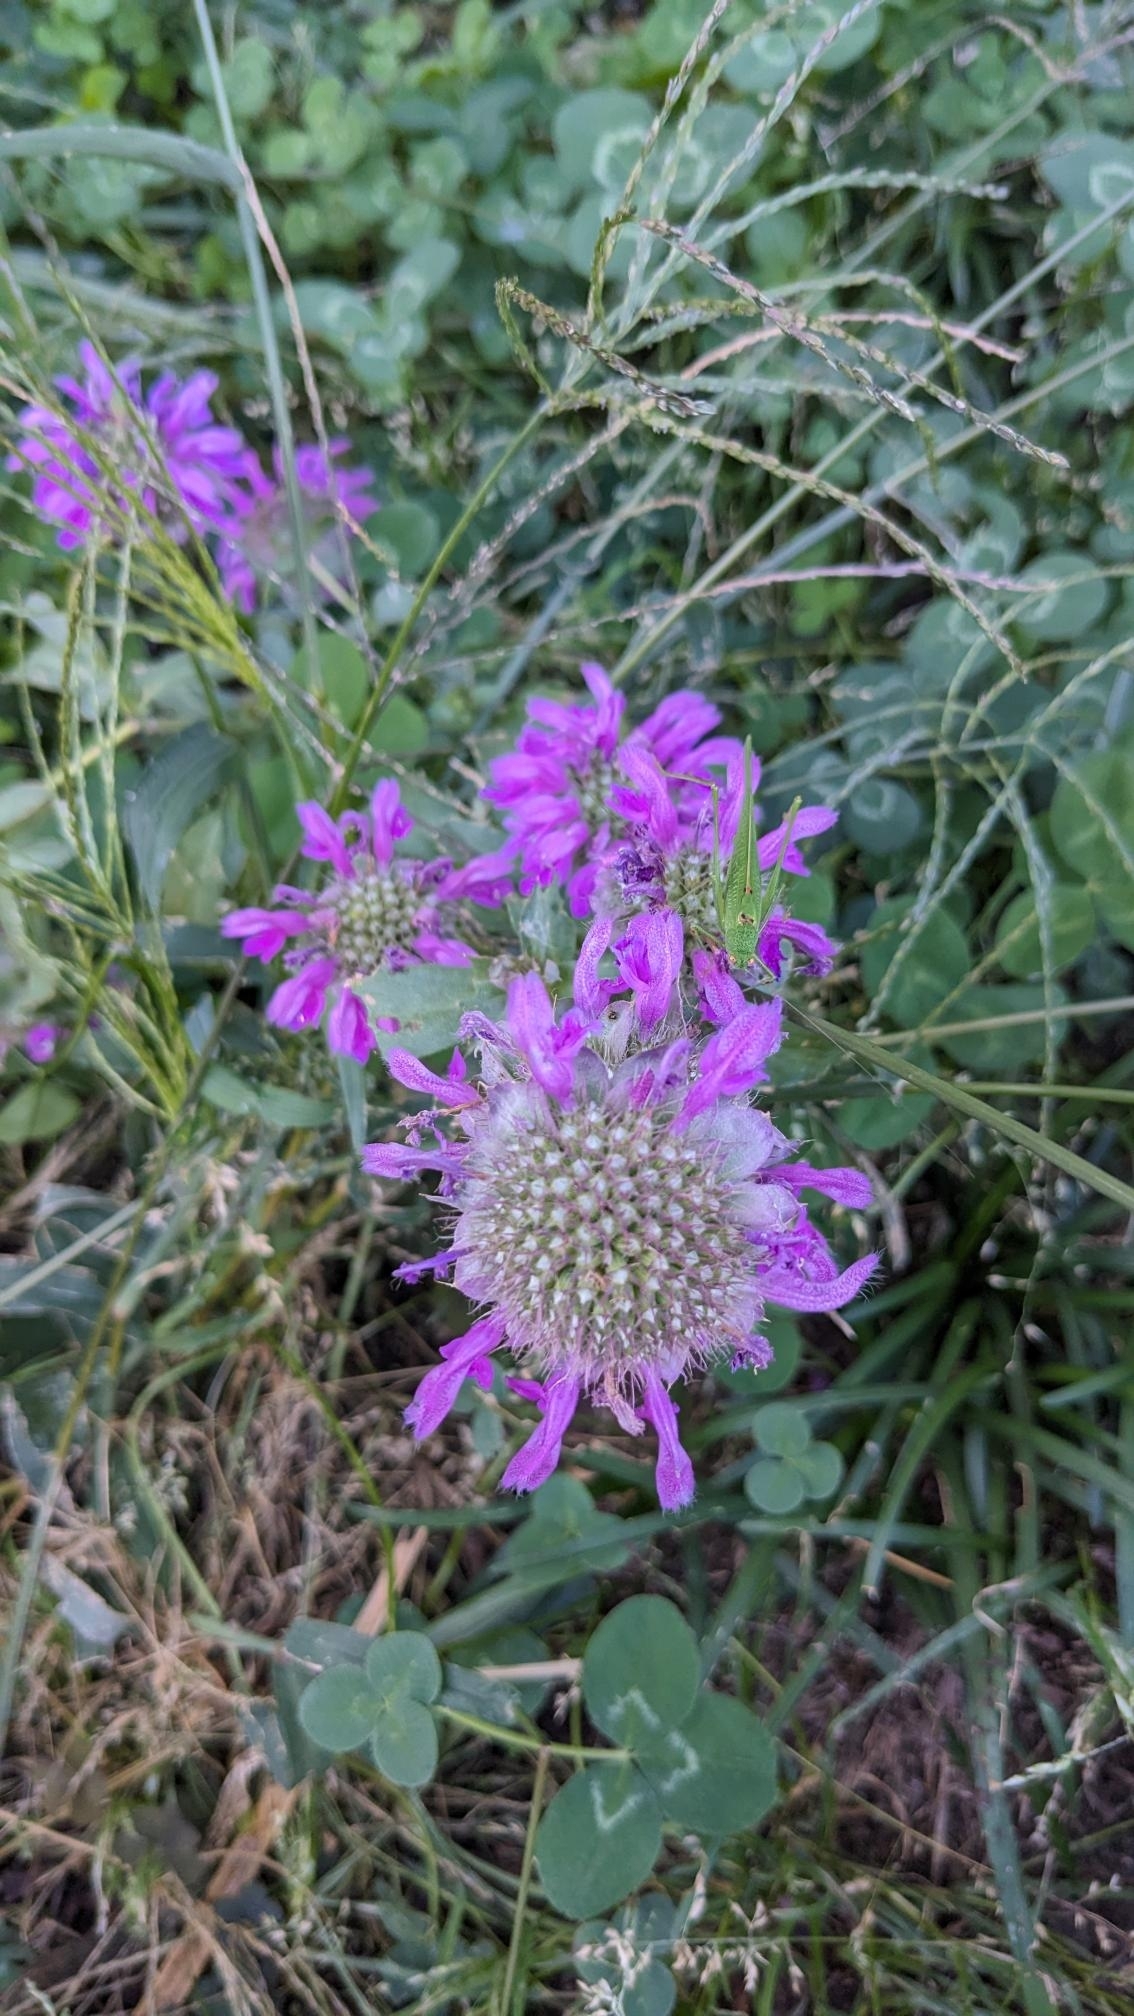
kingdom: Plantae
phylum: Tracheophyta
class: Magnoliopsida
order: Lamiales
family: Lamiaceae
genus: Monarda
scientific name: Monarda citriodora
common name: Lemon beebalm
